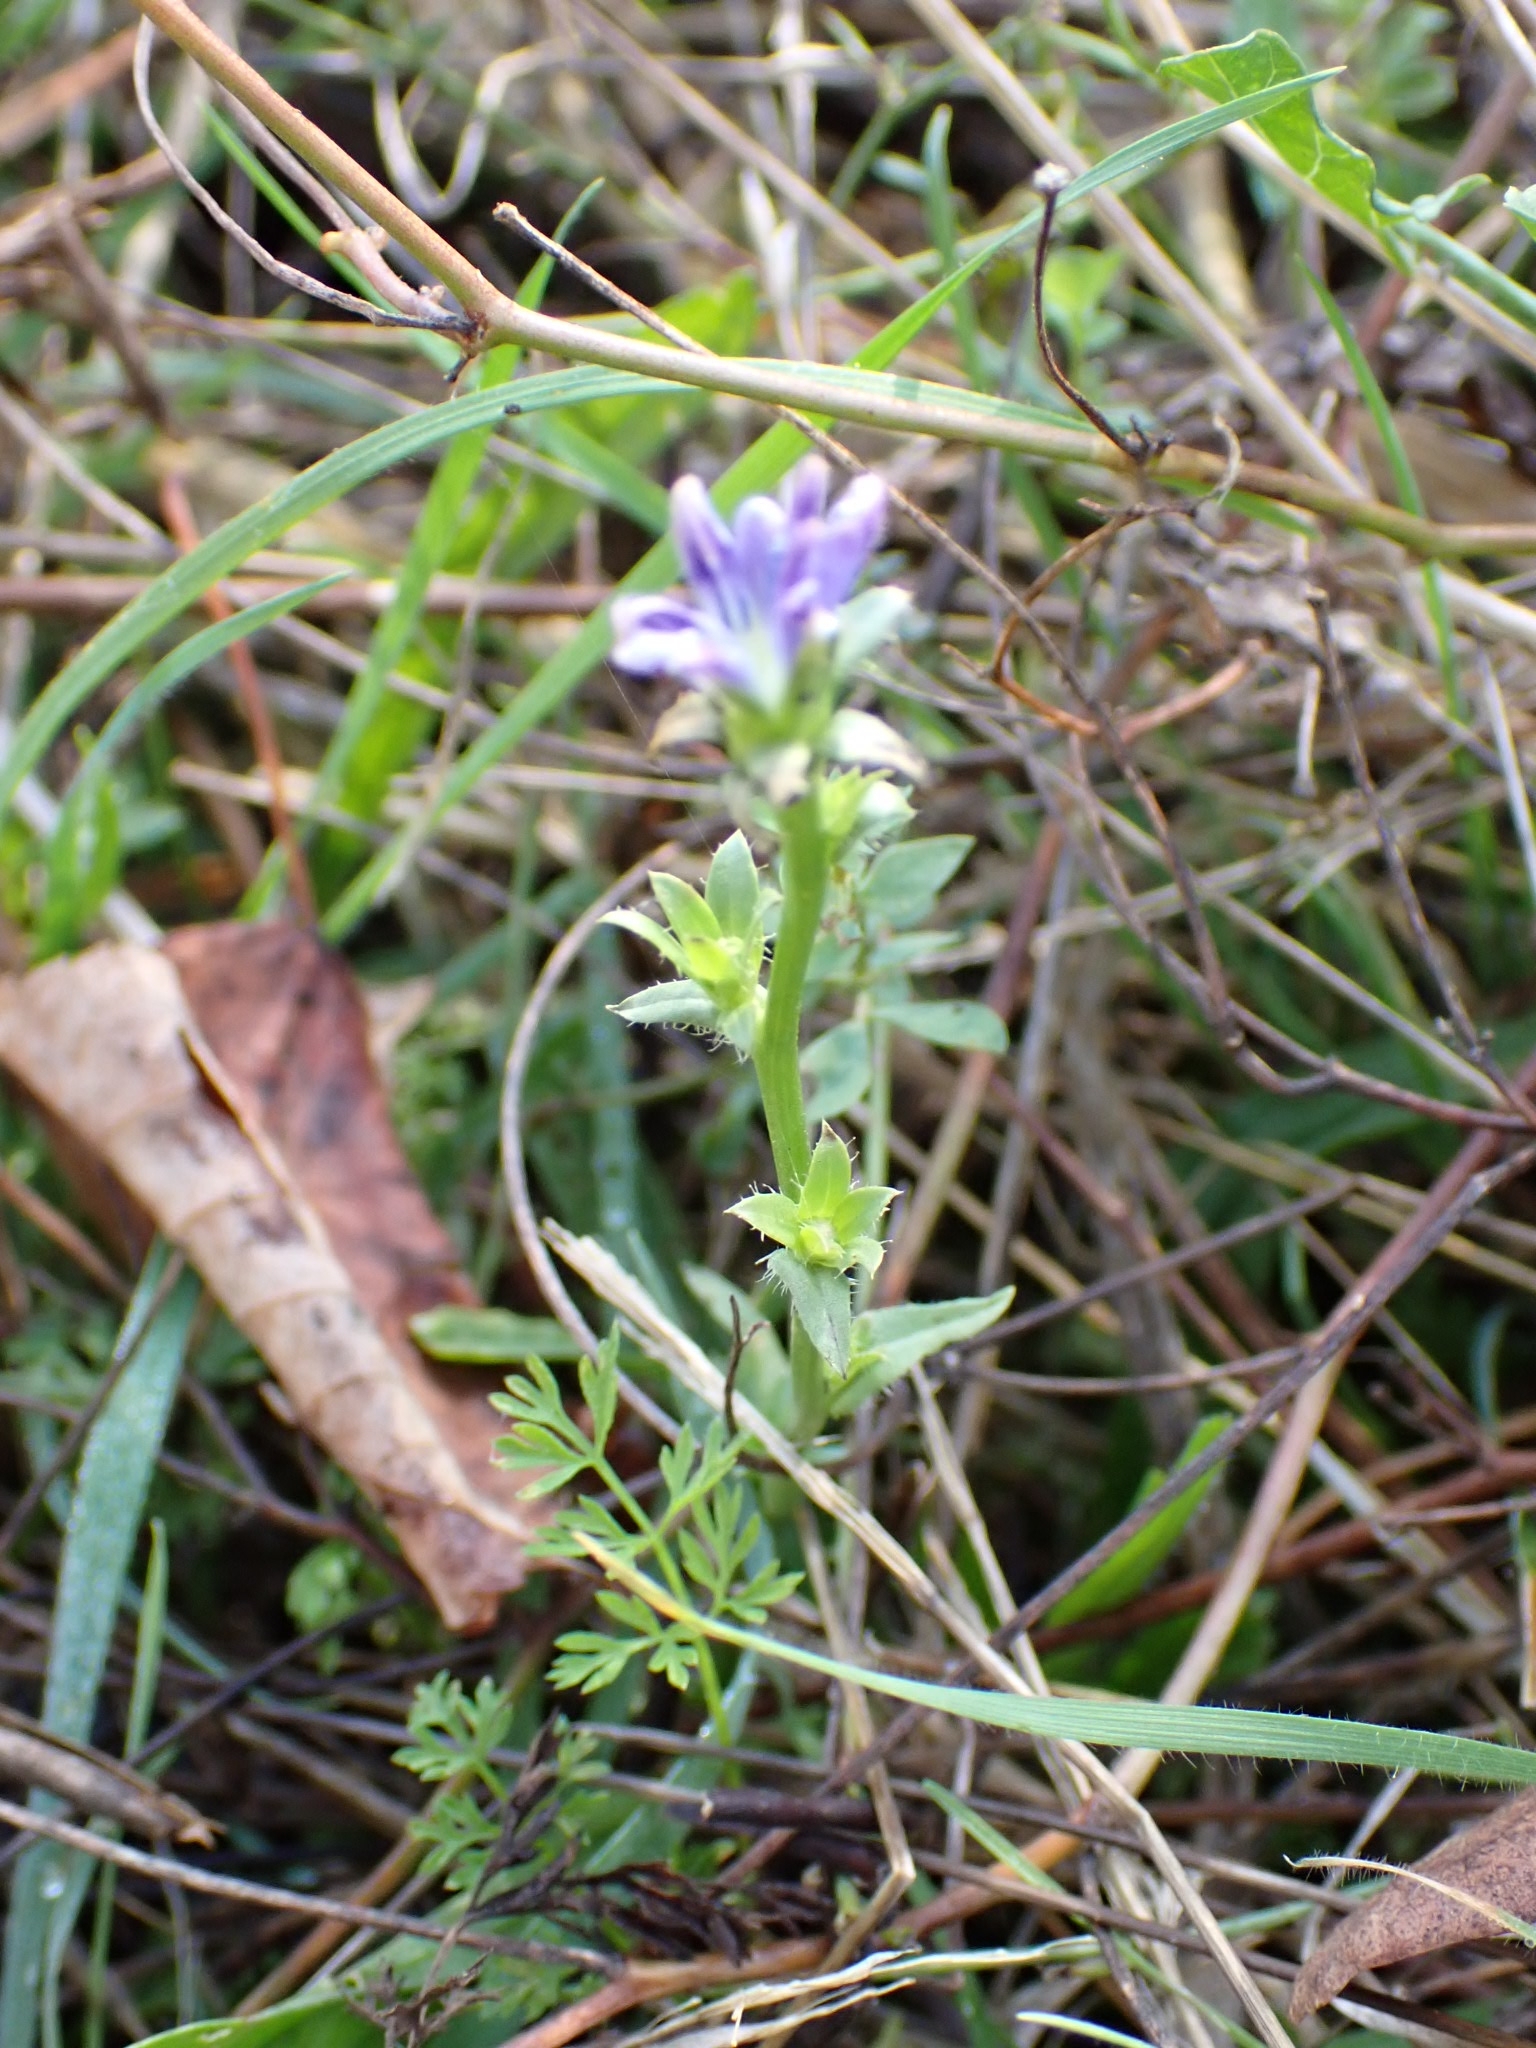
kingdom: Plantae
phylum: Tracheophyta
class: Magnoliopsida
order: Gentianales
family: Rubiaceae
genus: Sherardia
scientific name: Sherardia arvensis
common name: Field madder
